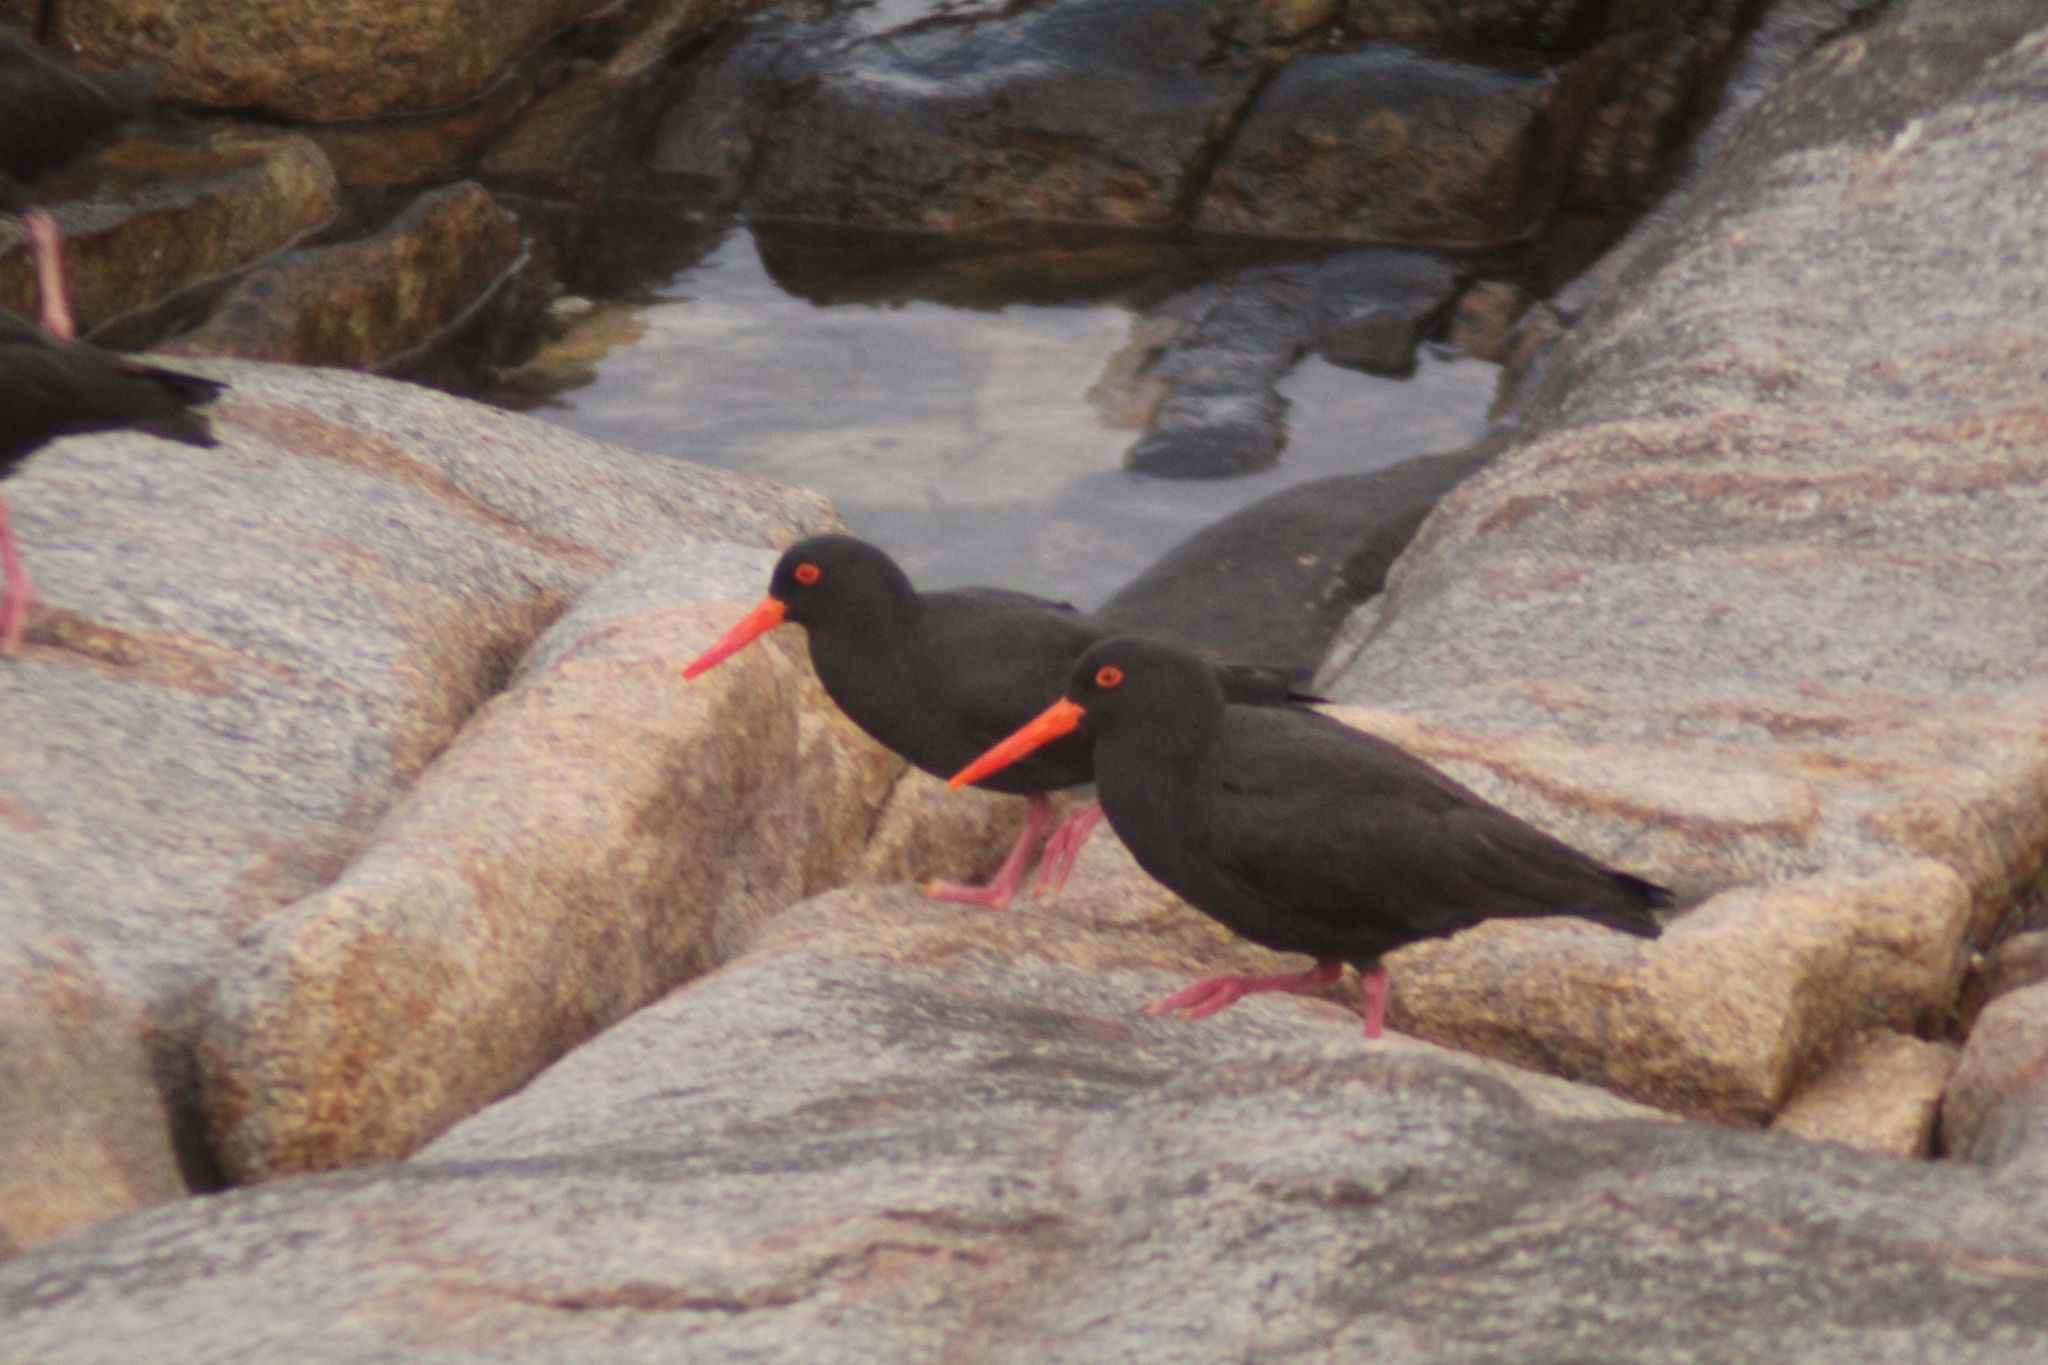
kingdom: Animalia
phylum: Chordata
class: Aves
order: Charadriiformes
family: Haematopodidae
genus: Haematopus
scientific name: Haematopus fuliginosus
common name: Sooty oystercatcher
